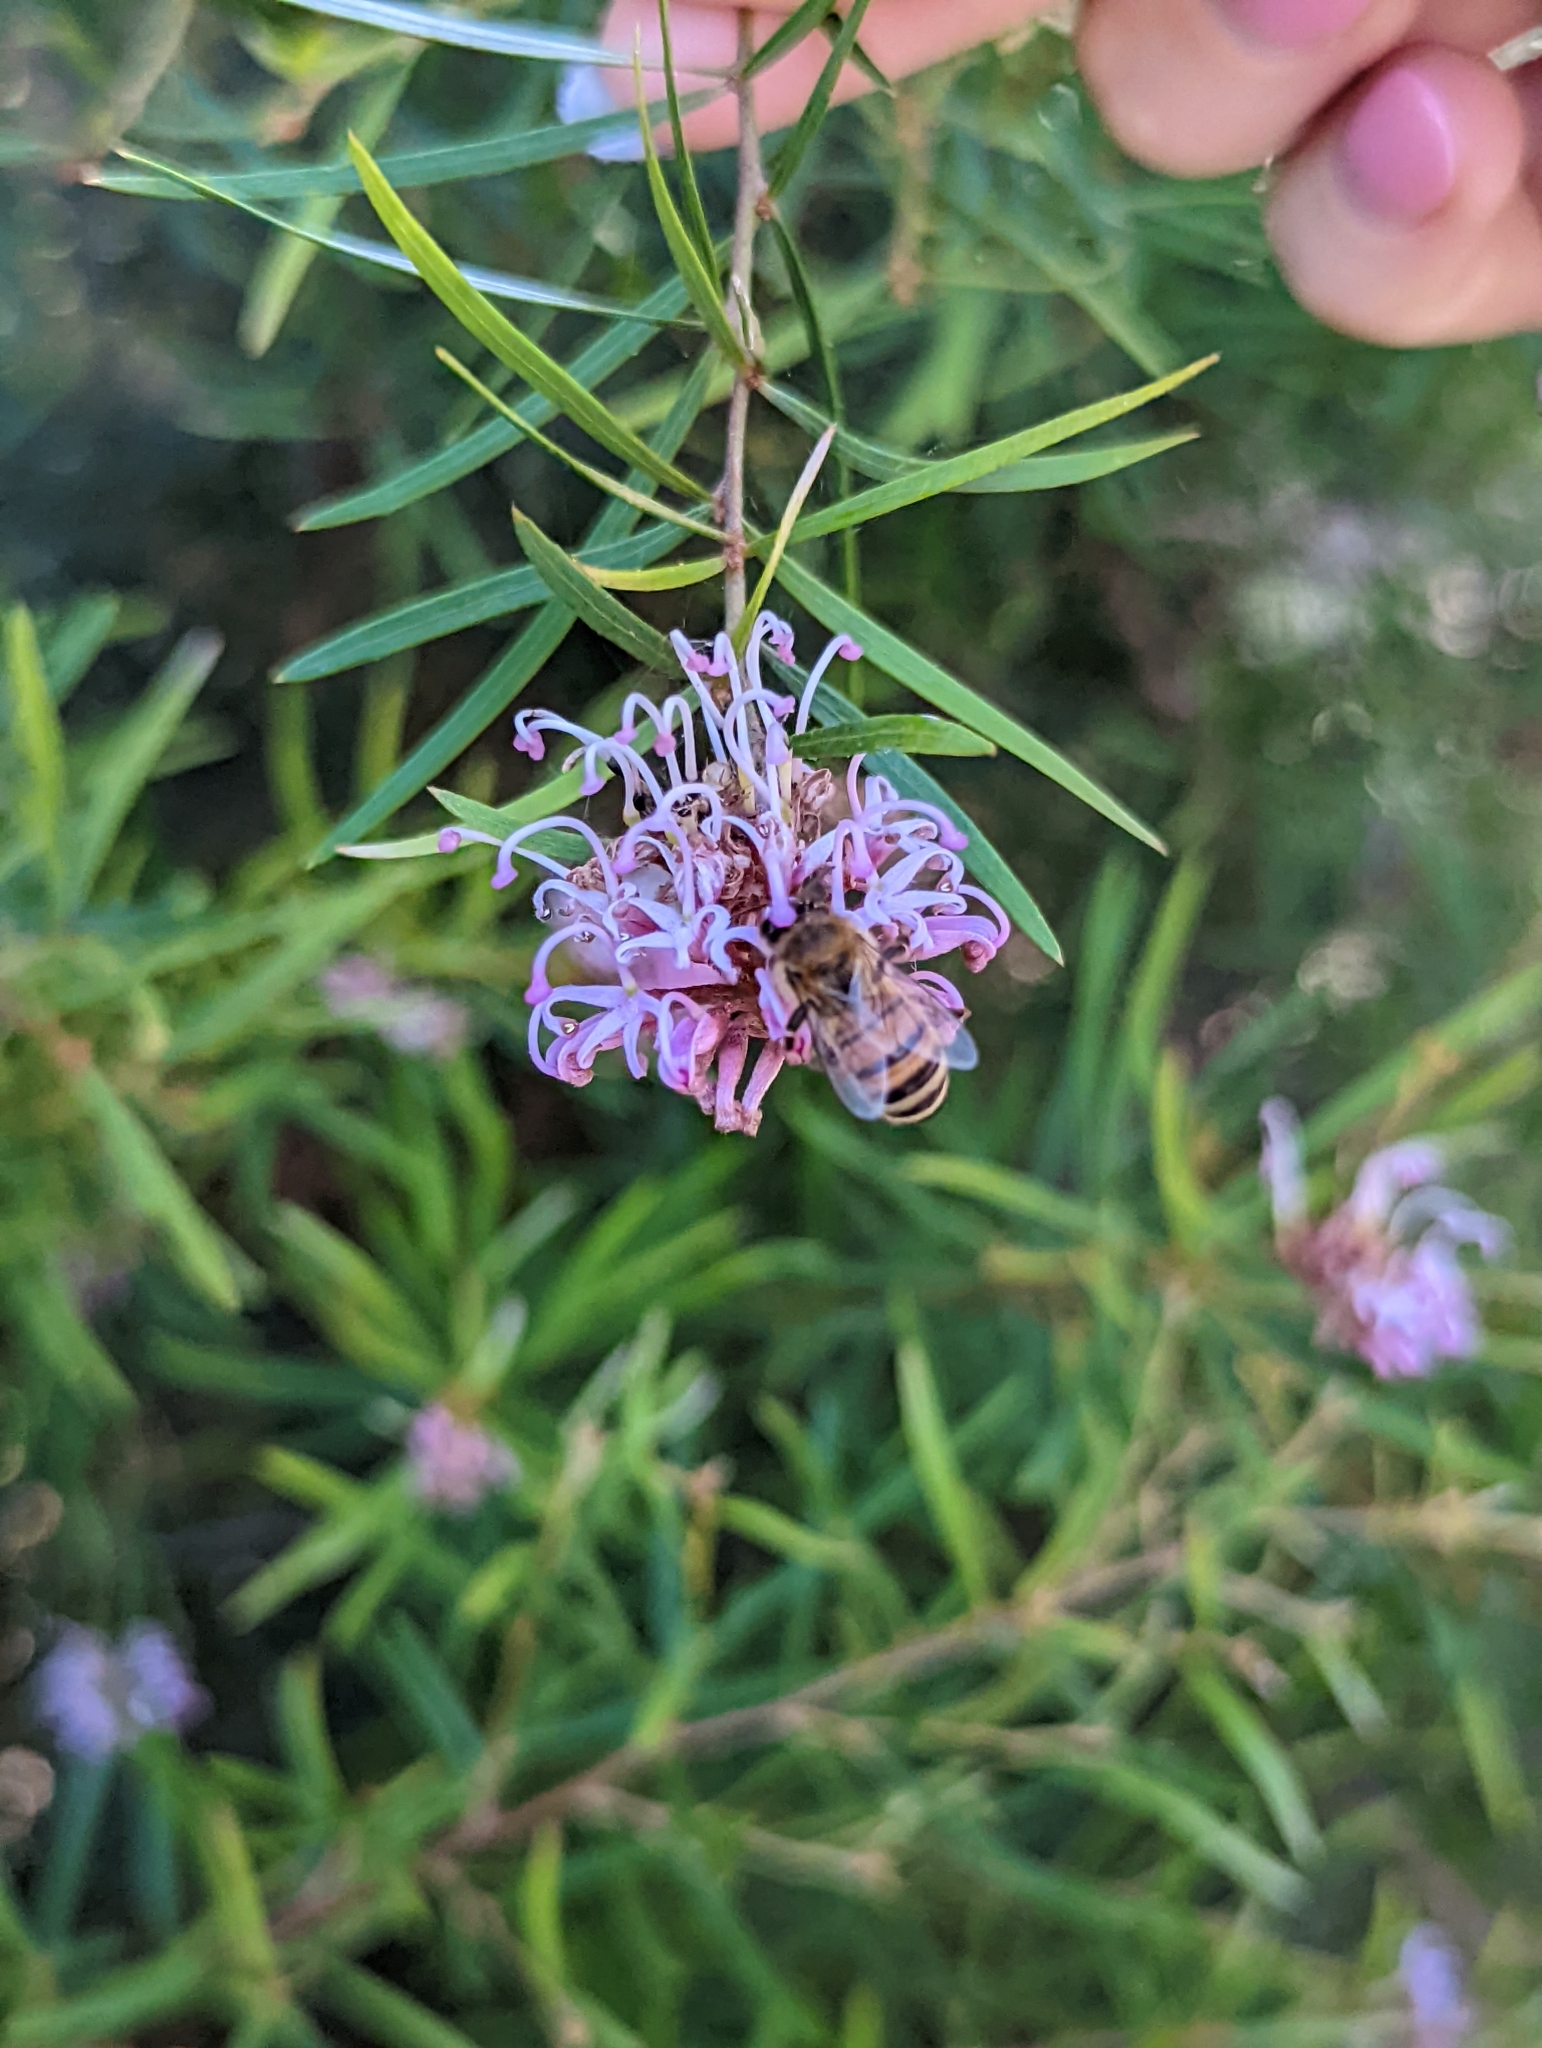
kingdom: Animalia
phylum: Arthropoda
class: Insecta
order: Hymenoptera
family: Apidae
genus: Apis
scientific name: Apis mellifera
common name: Honey bee
